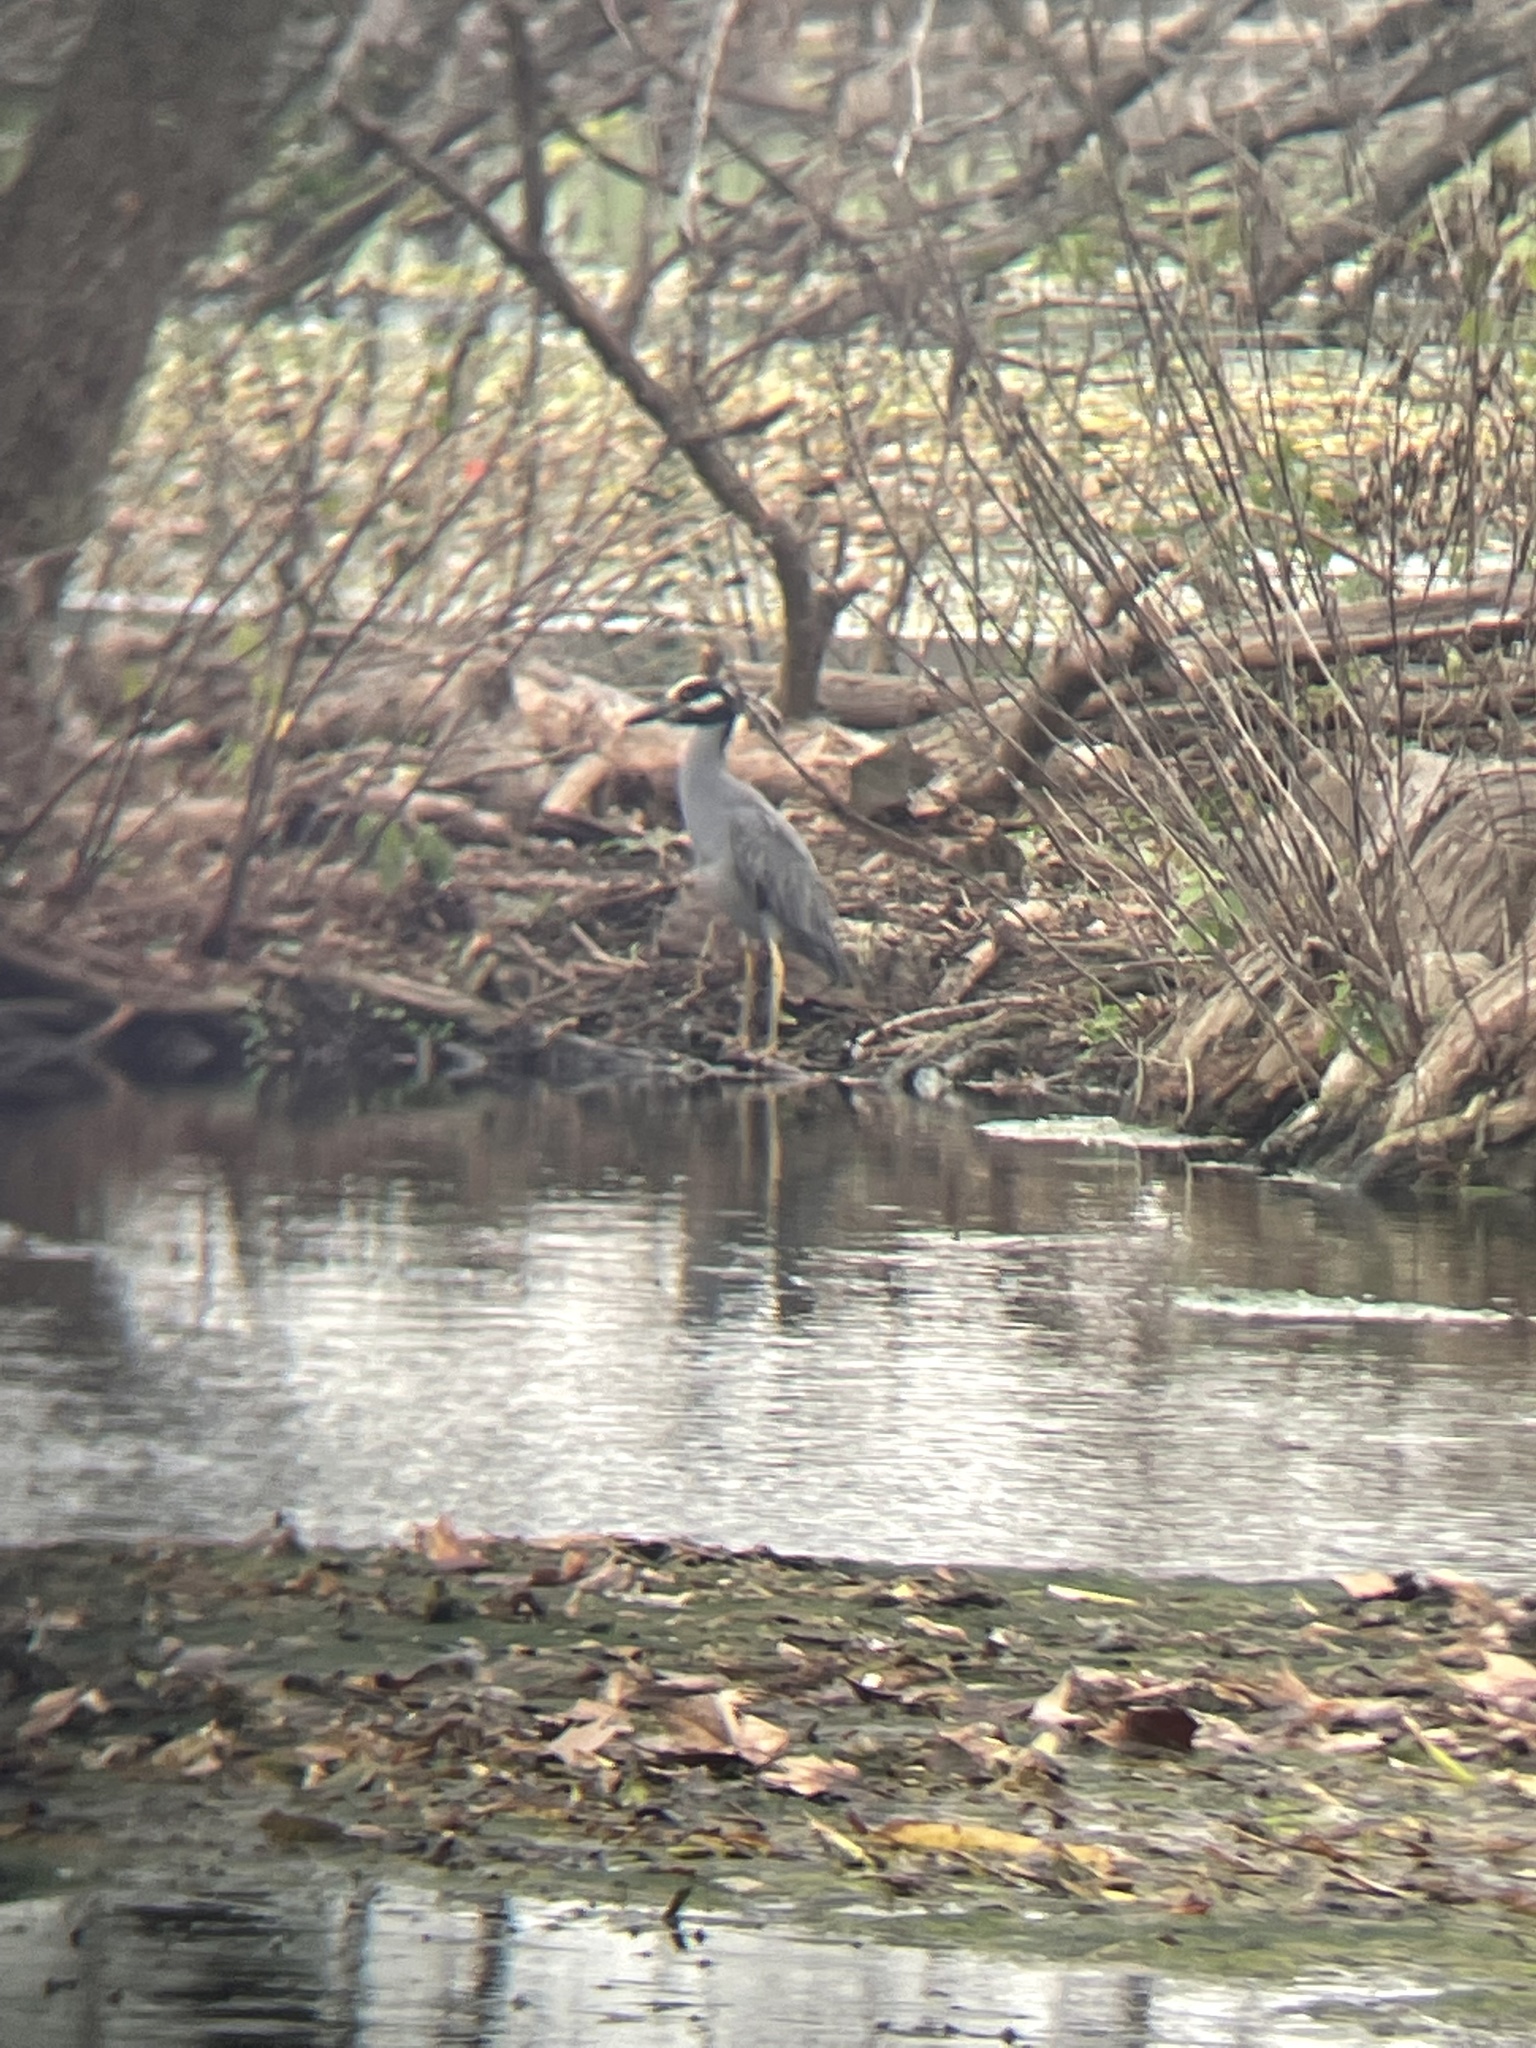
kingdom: Animalia
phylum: Chordata
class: Aves
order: Pelecaniformes
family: Ardeidae
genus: Nyctanassa
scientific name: Nyctanassa violacea
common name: Yellow-crowned night heron
